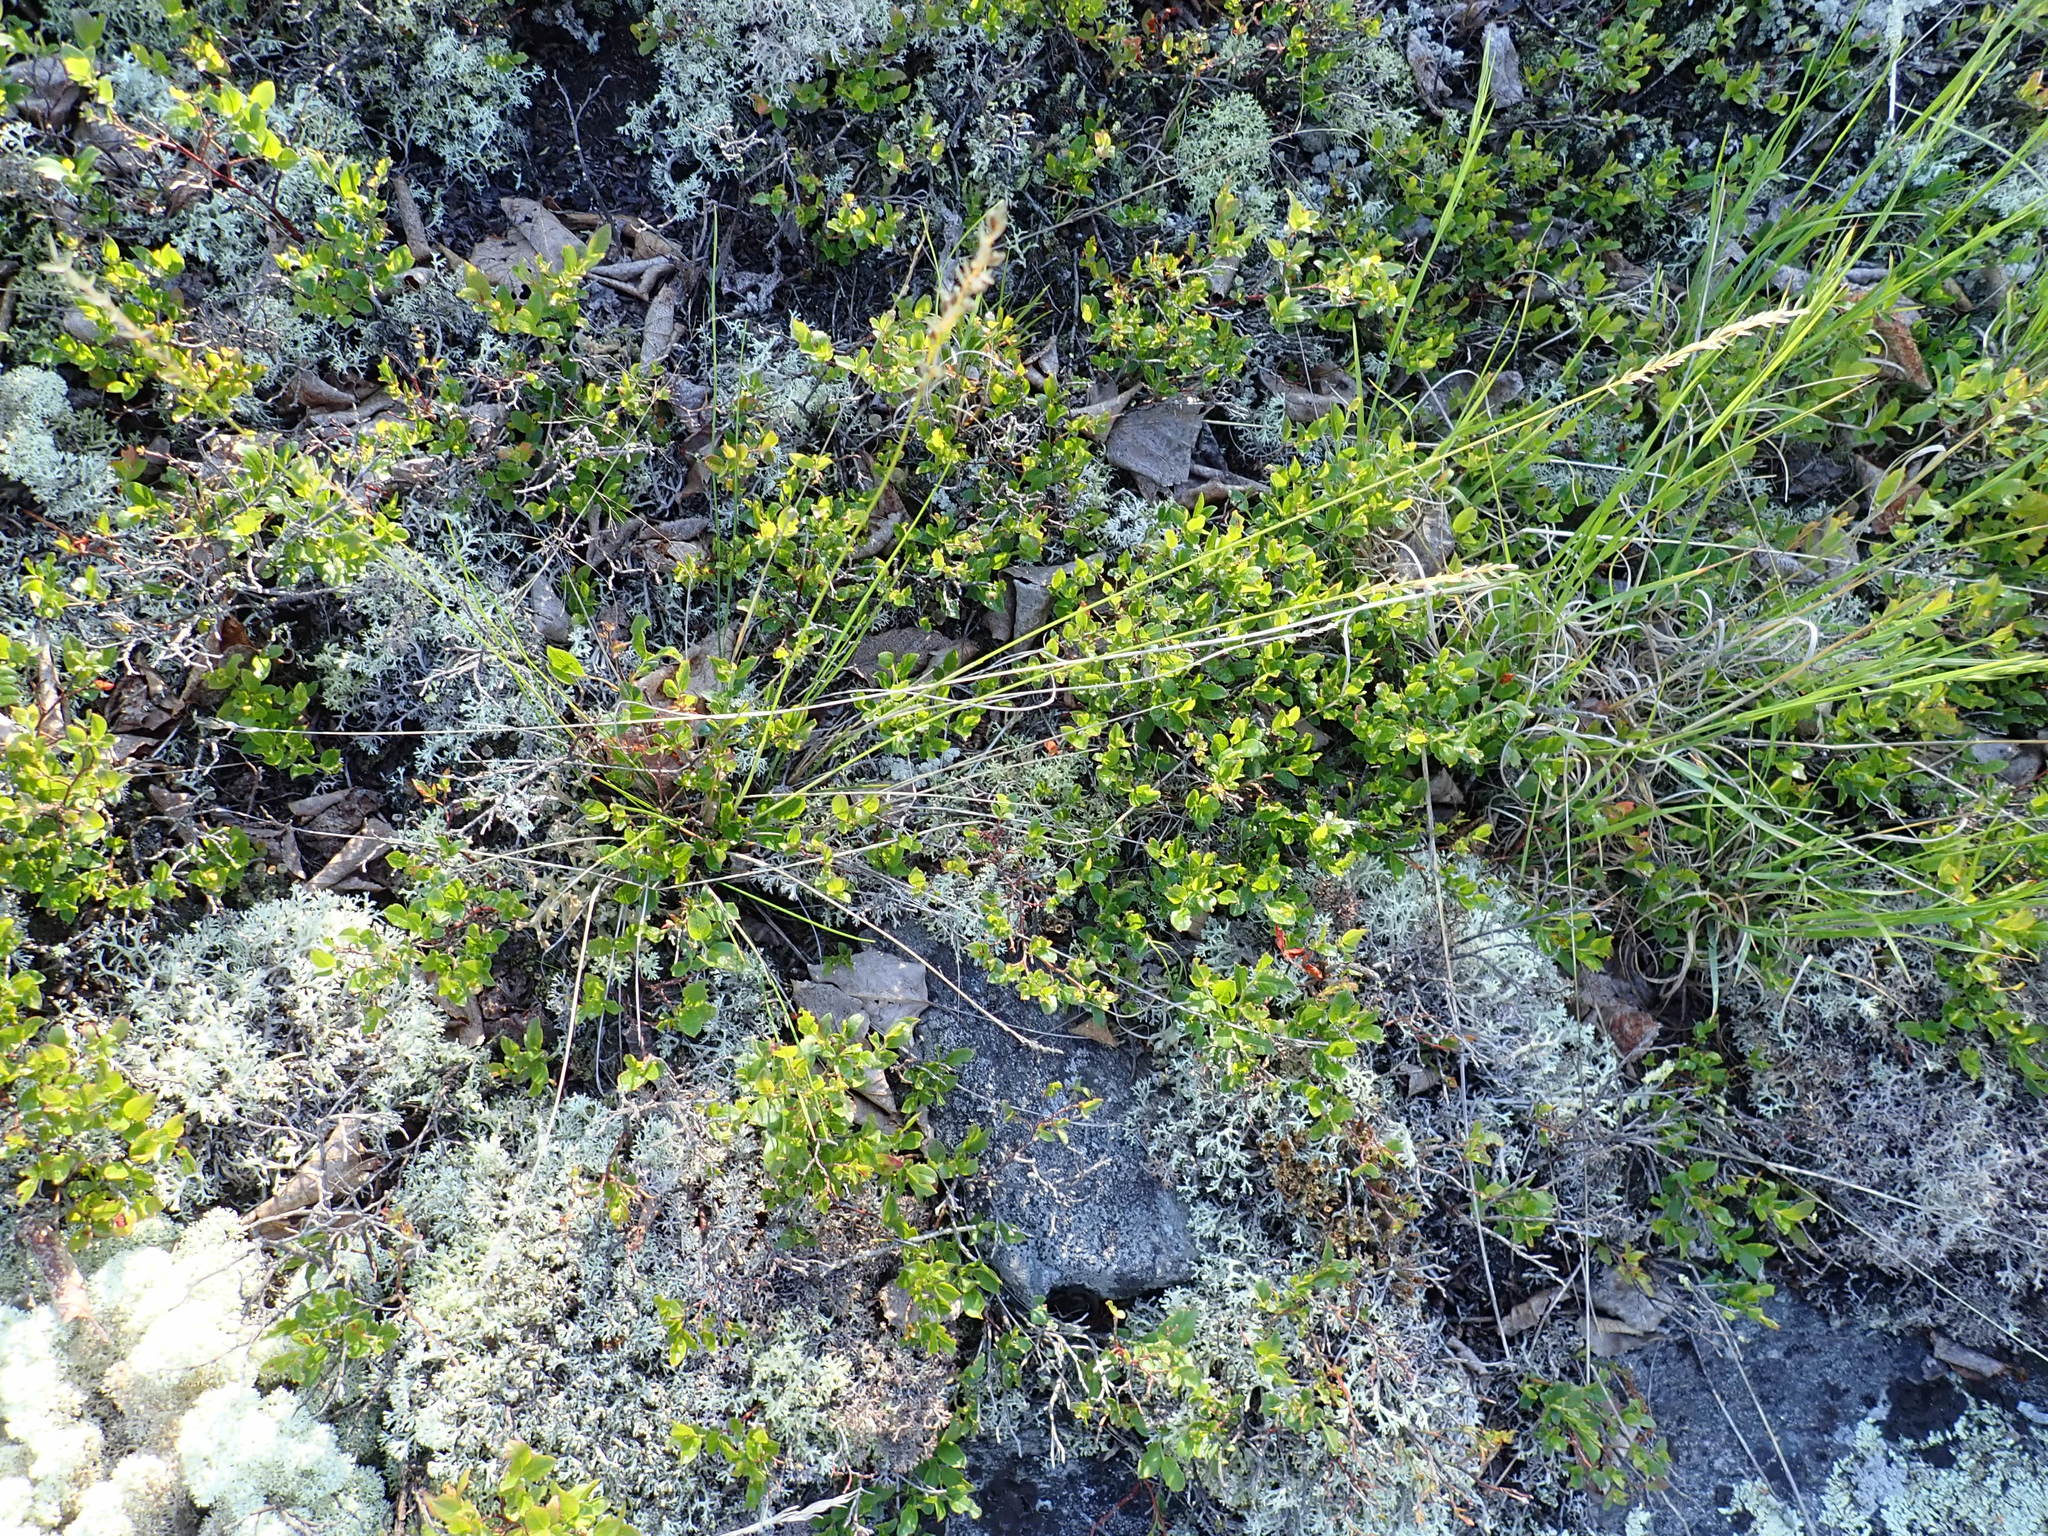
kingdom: Plantae
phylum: Tracheophyta
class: Liliopsida
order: Poales
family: Poaceae
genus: Piptatheropsis
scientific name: Piptatheropsis pungens
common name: Northern ricegrass
